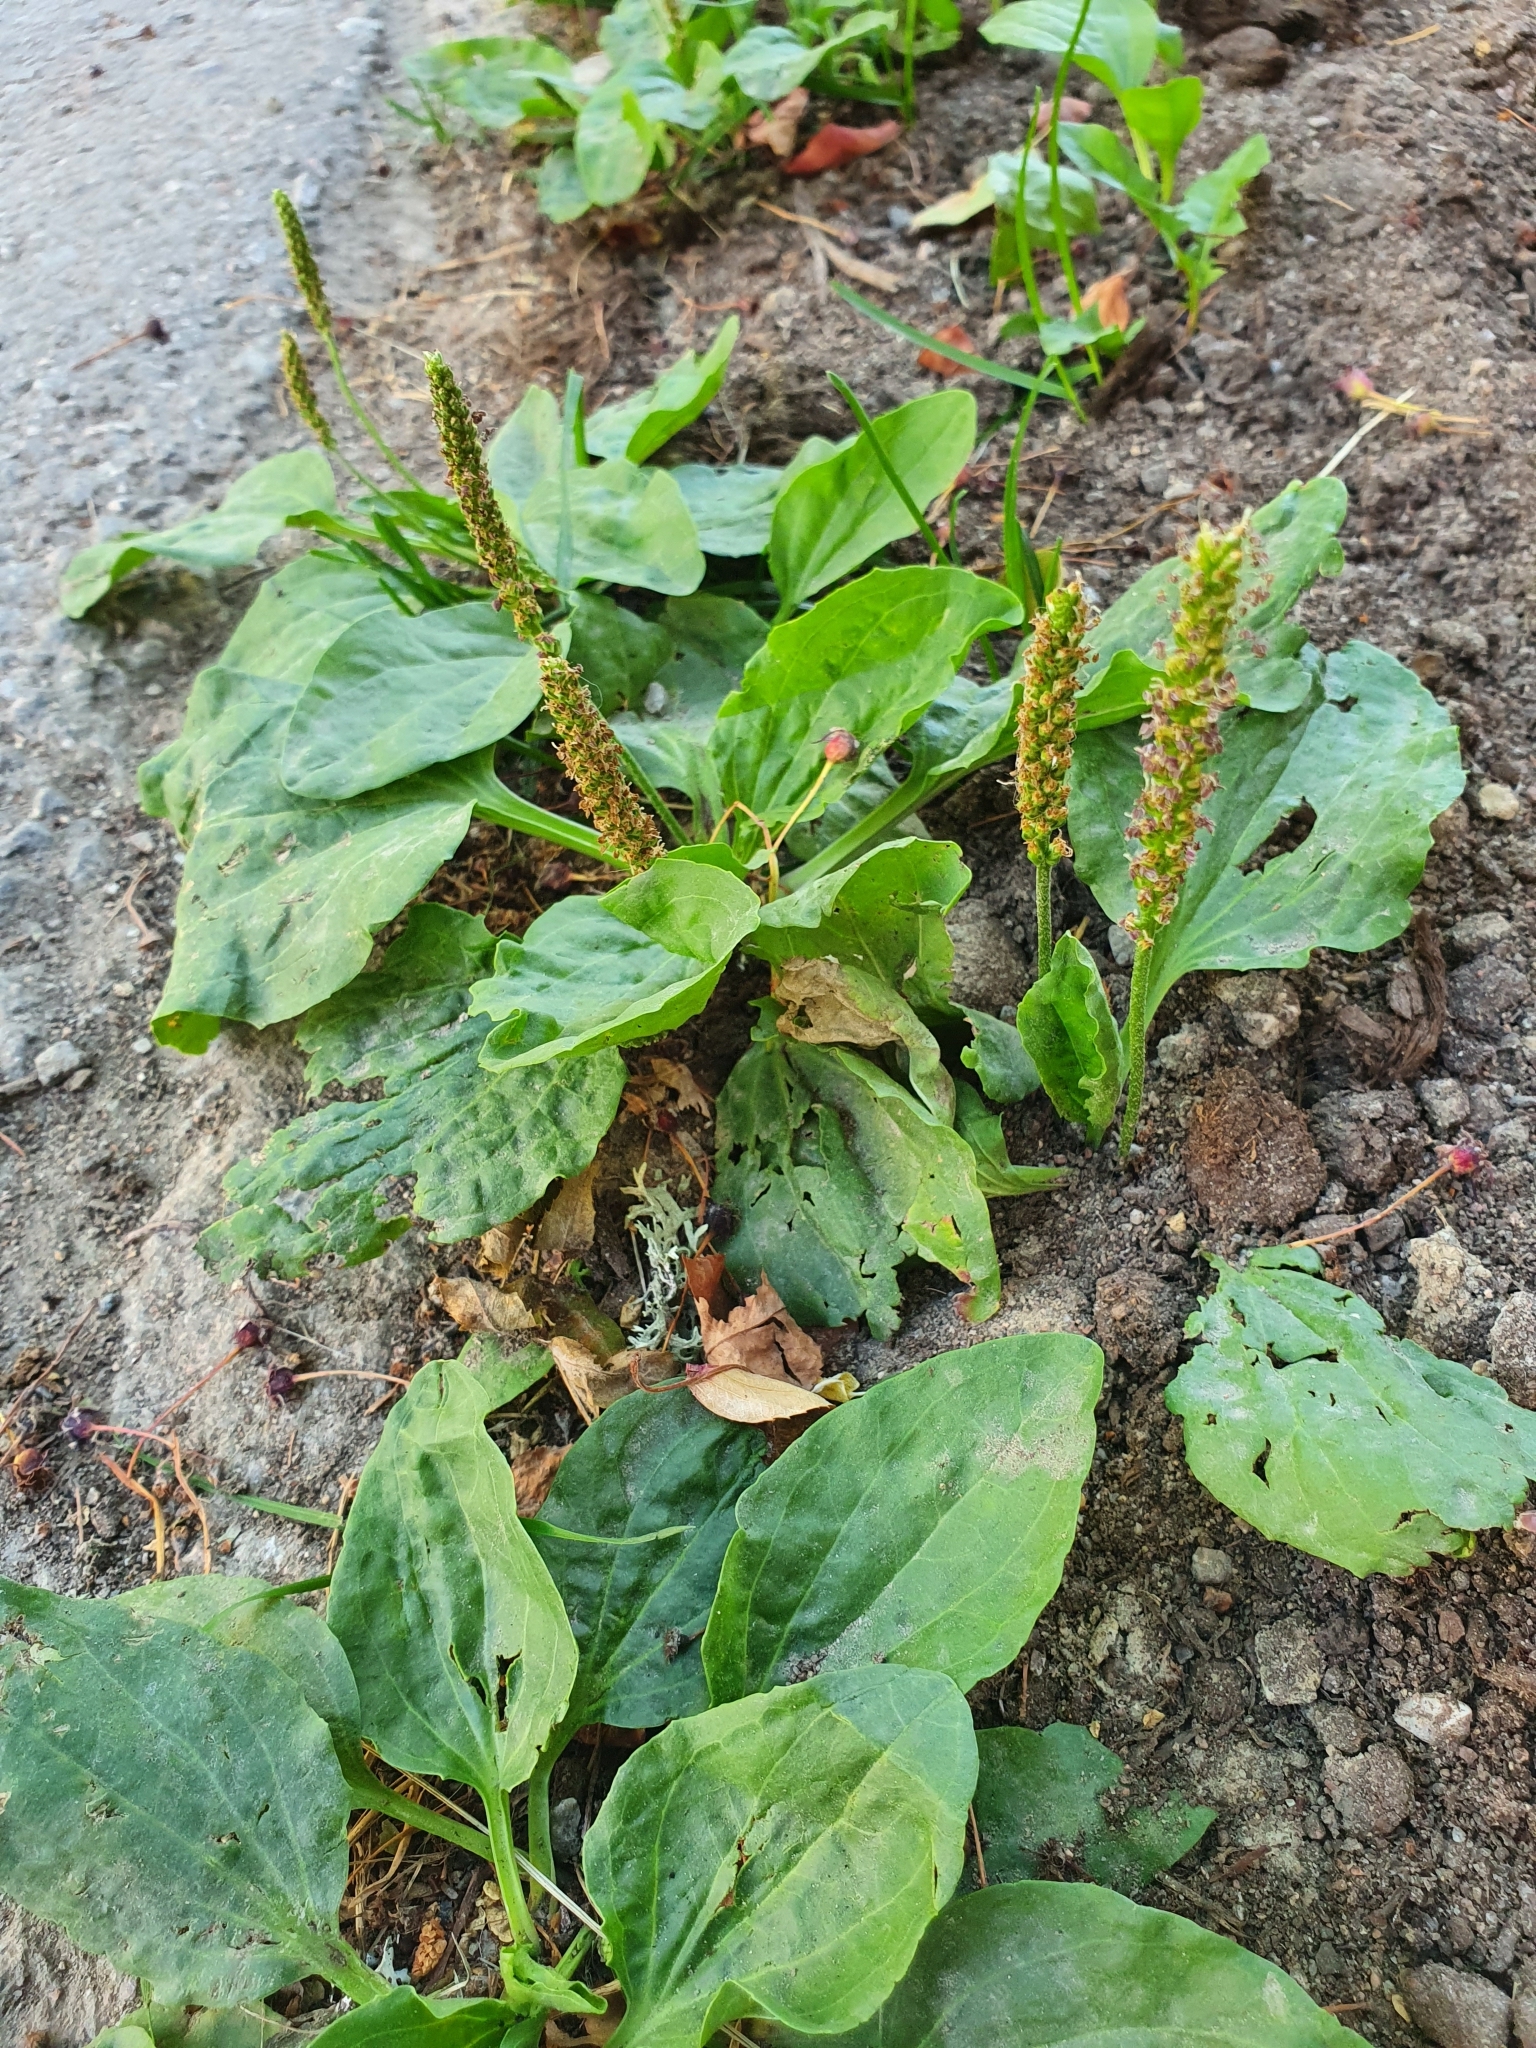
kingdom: Plantae
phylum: Tracheophyta
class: Magnoliopsida
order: Lamiales
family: Plantaginaceae
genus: Plantago
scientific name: Plantago major
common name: Common plantain
